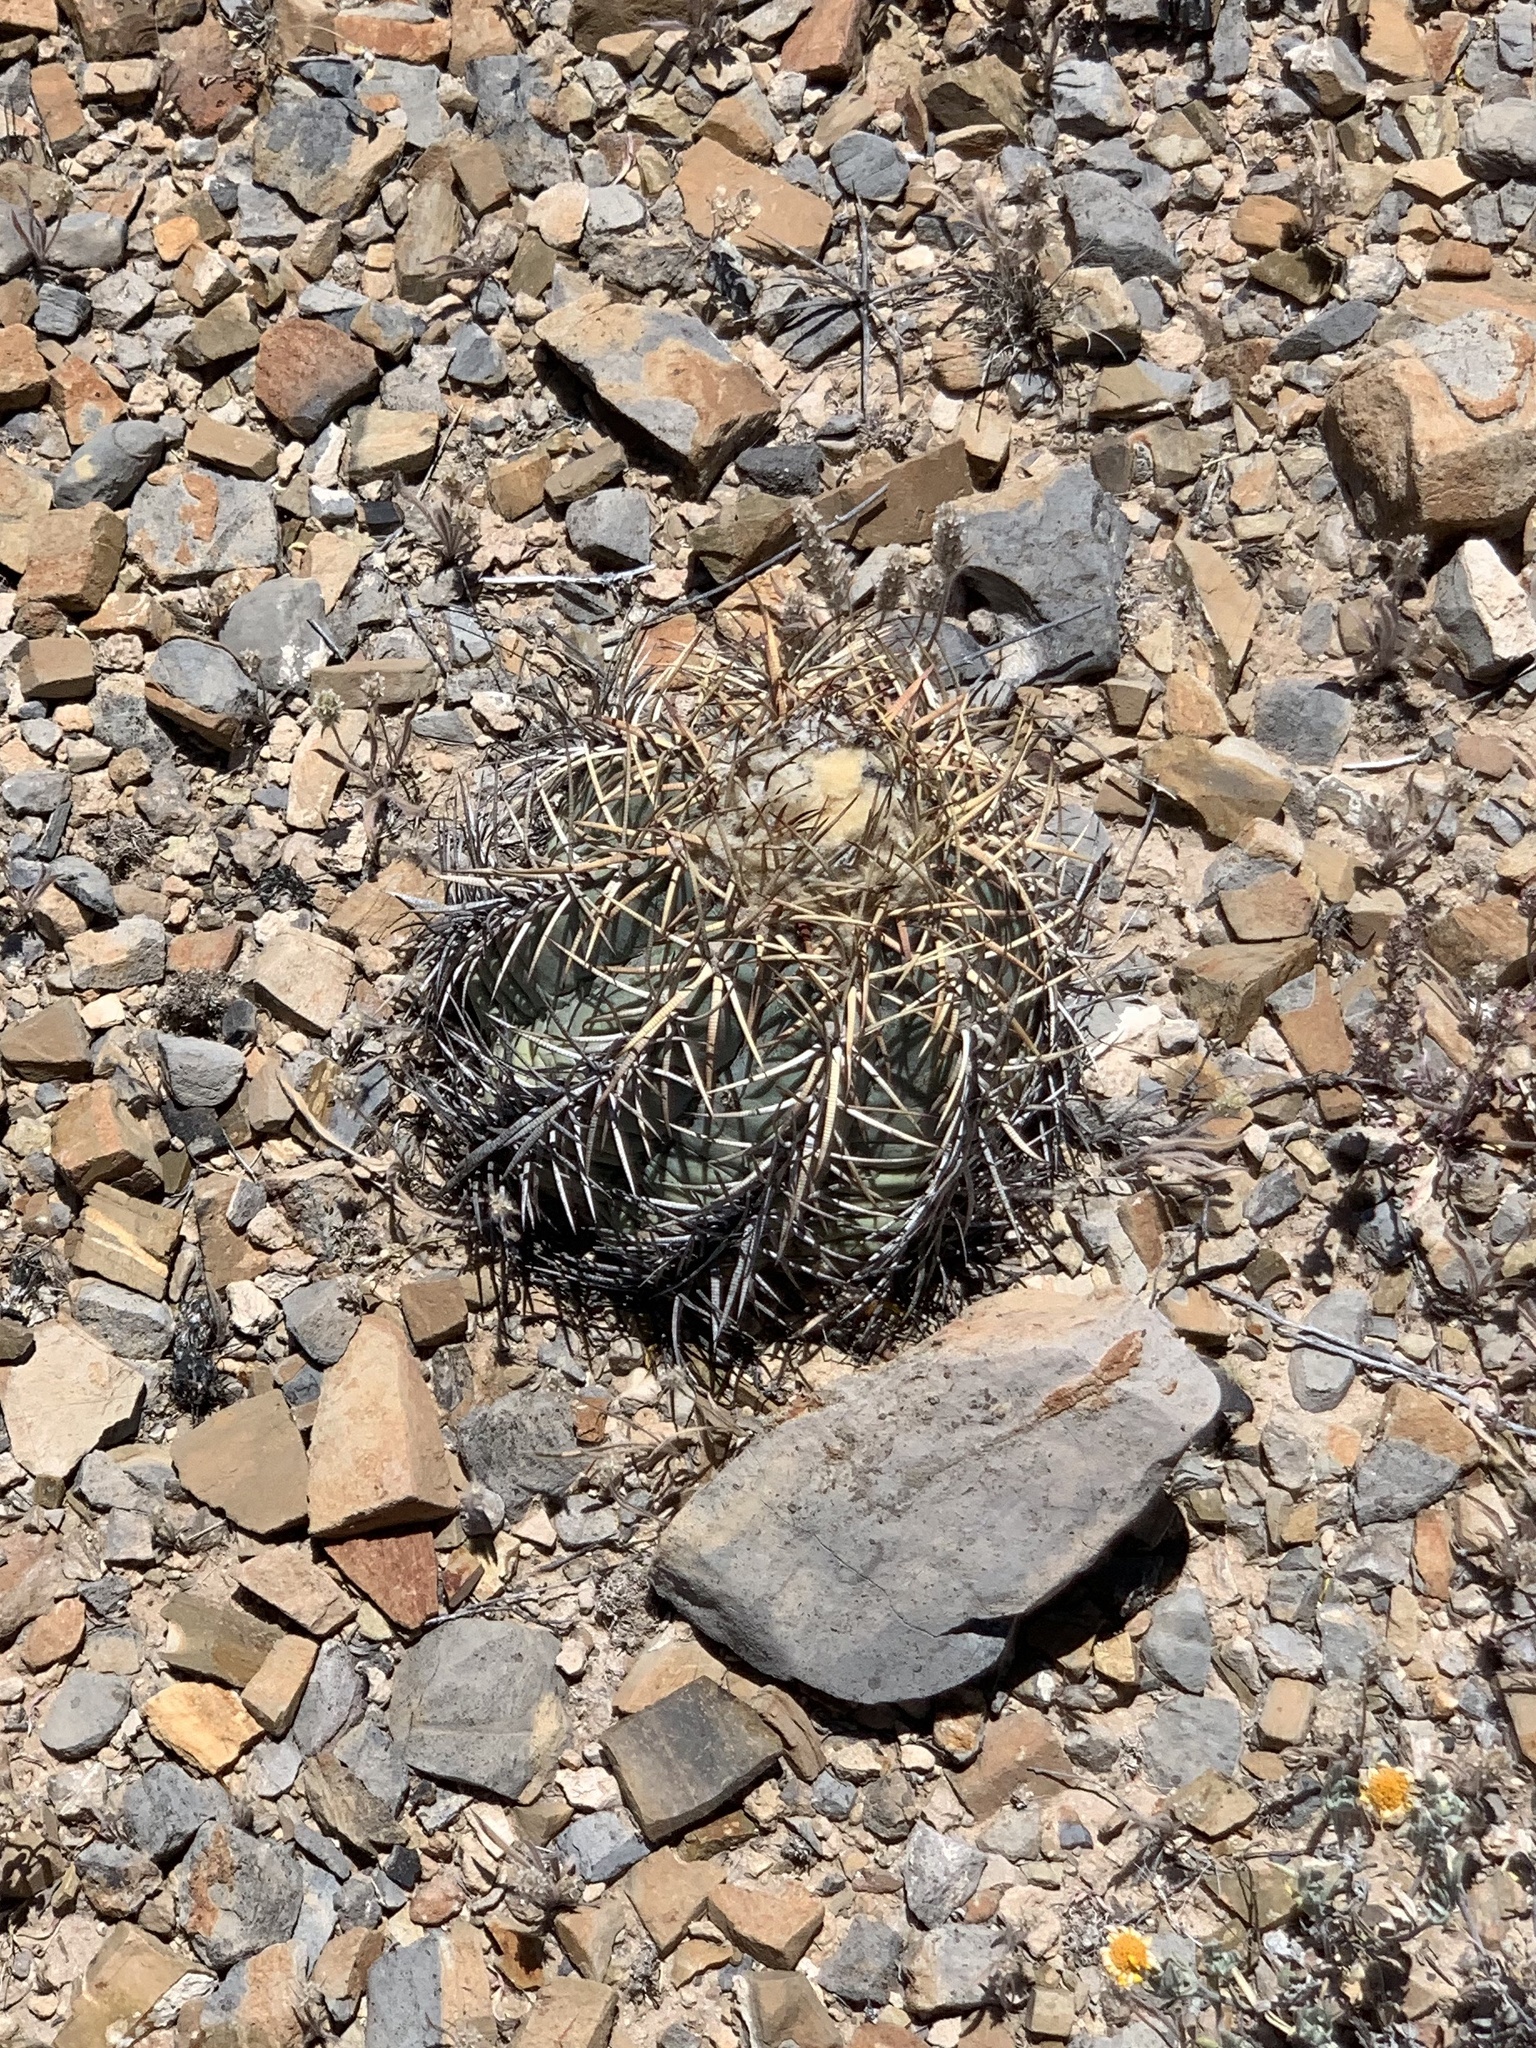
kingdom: Plantae
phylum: Tracheophyta
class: Magnoliopsida
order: Caryophyllales
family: Cactaceae
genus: Echinocactus
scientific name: Echinocactus horizonthalonius
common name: Devilshead
